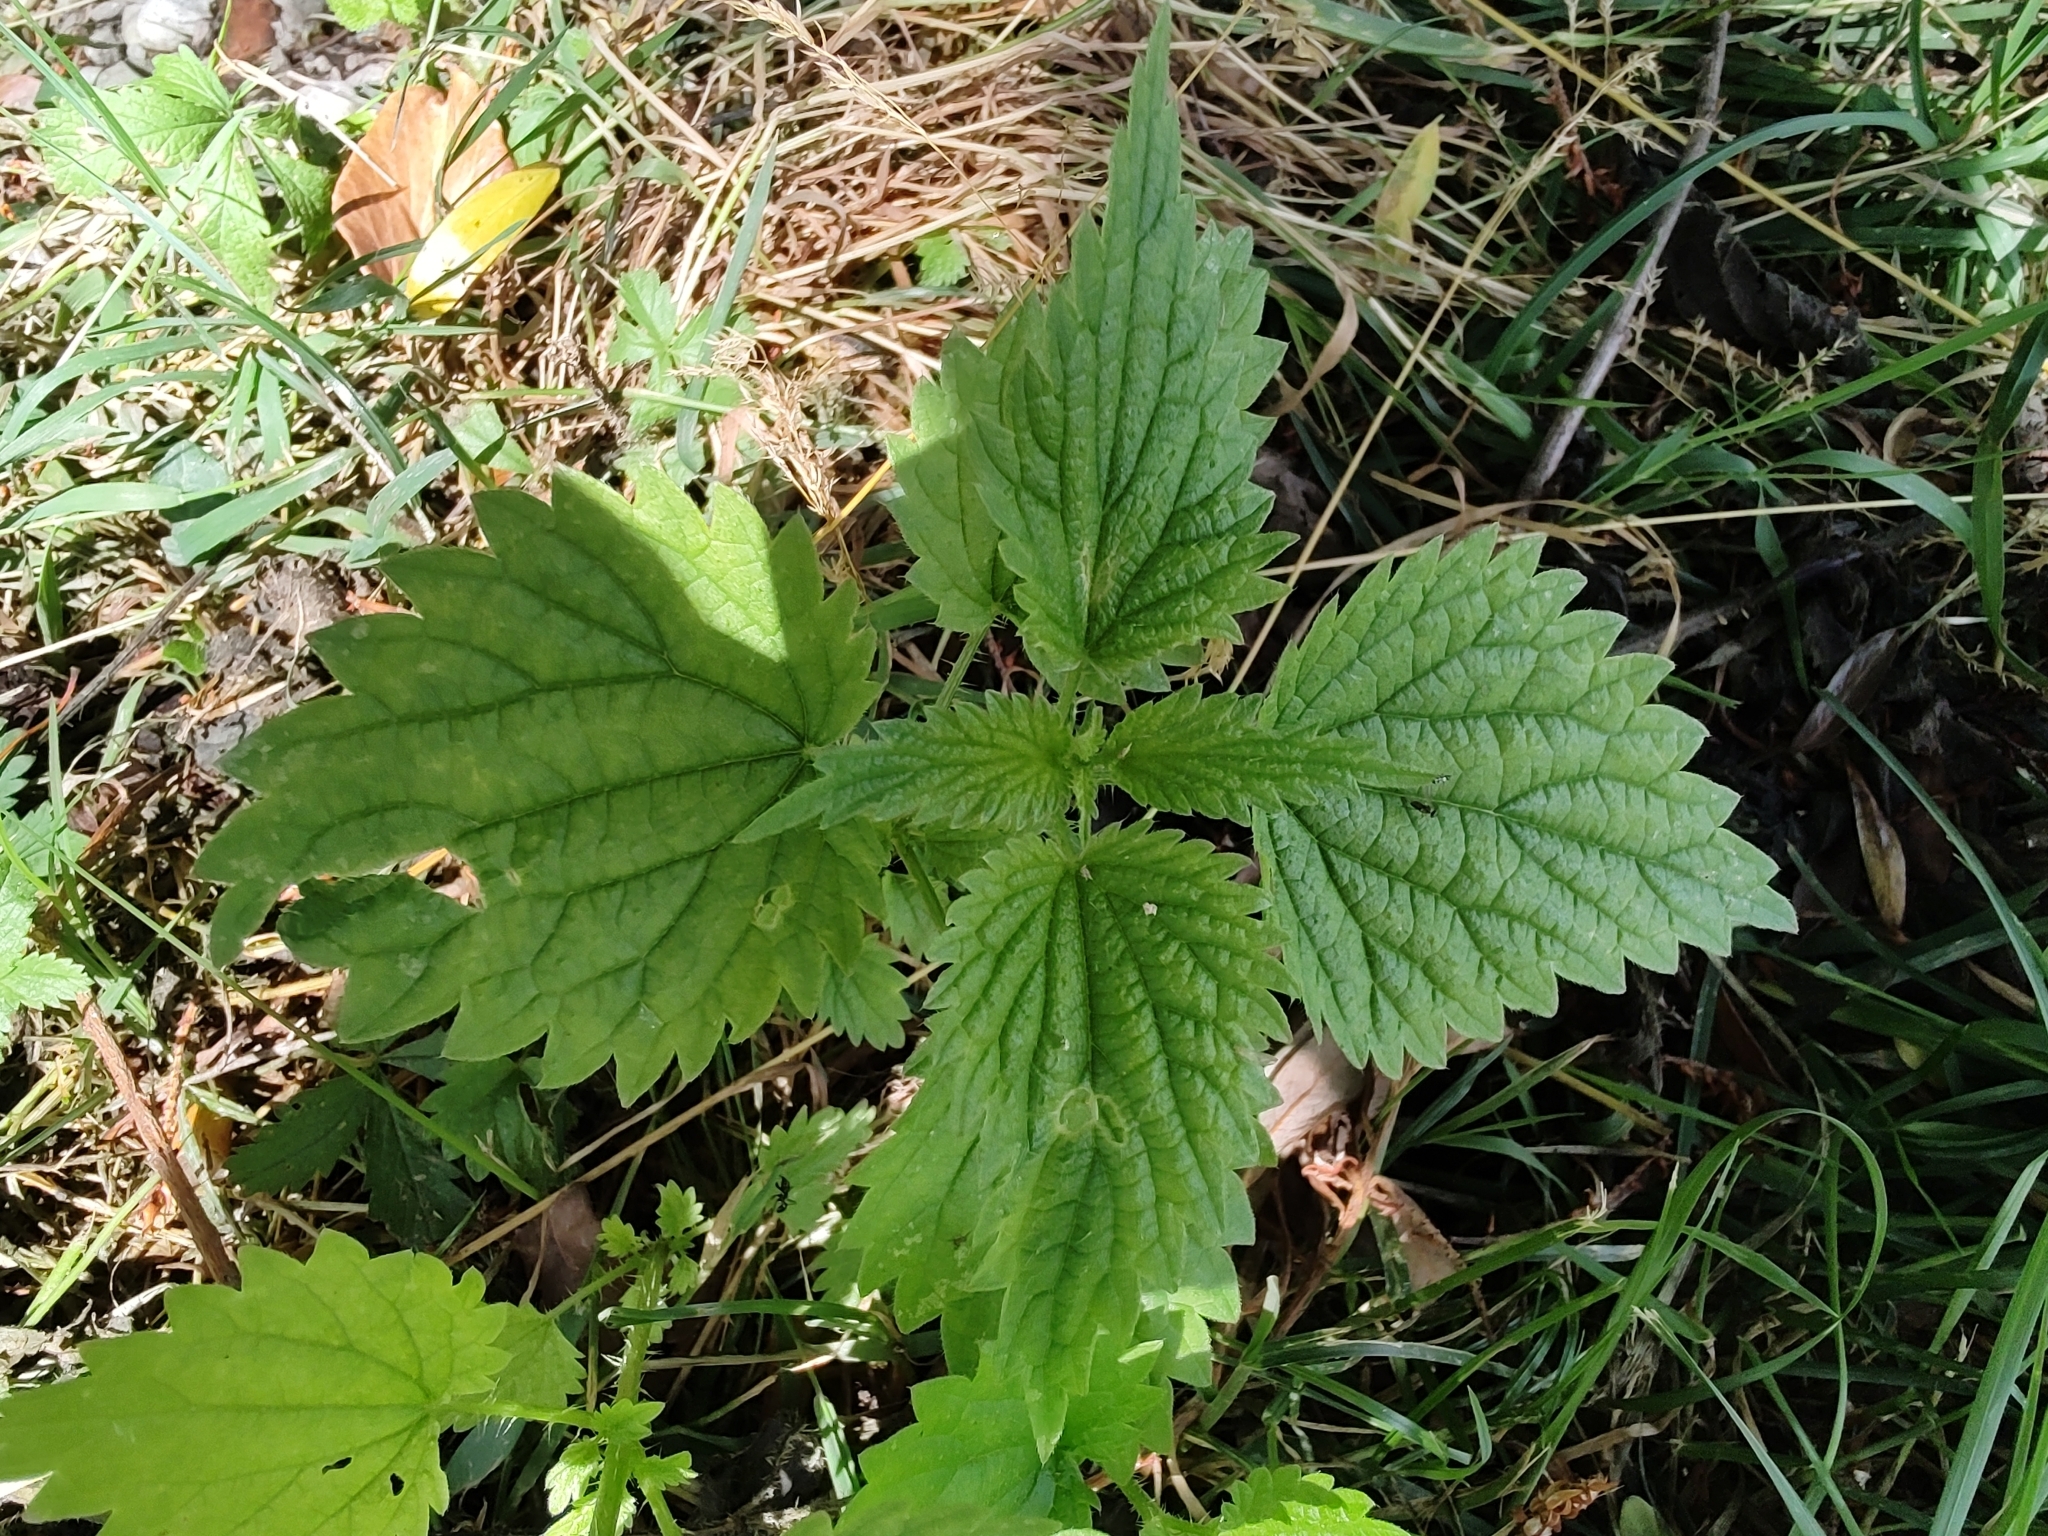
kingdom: Plantae
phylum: Tracheophyta
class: Magnoliopsida
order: Rosales
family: Urticaceae
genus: Urtica
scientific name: Urtica dioica
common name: Common nettle
